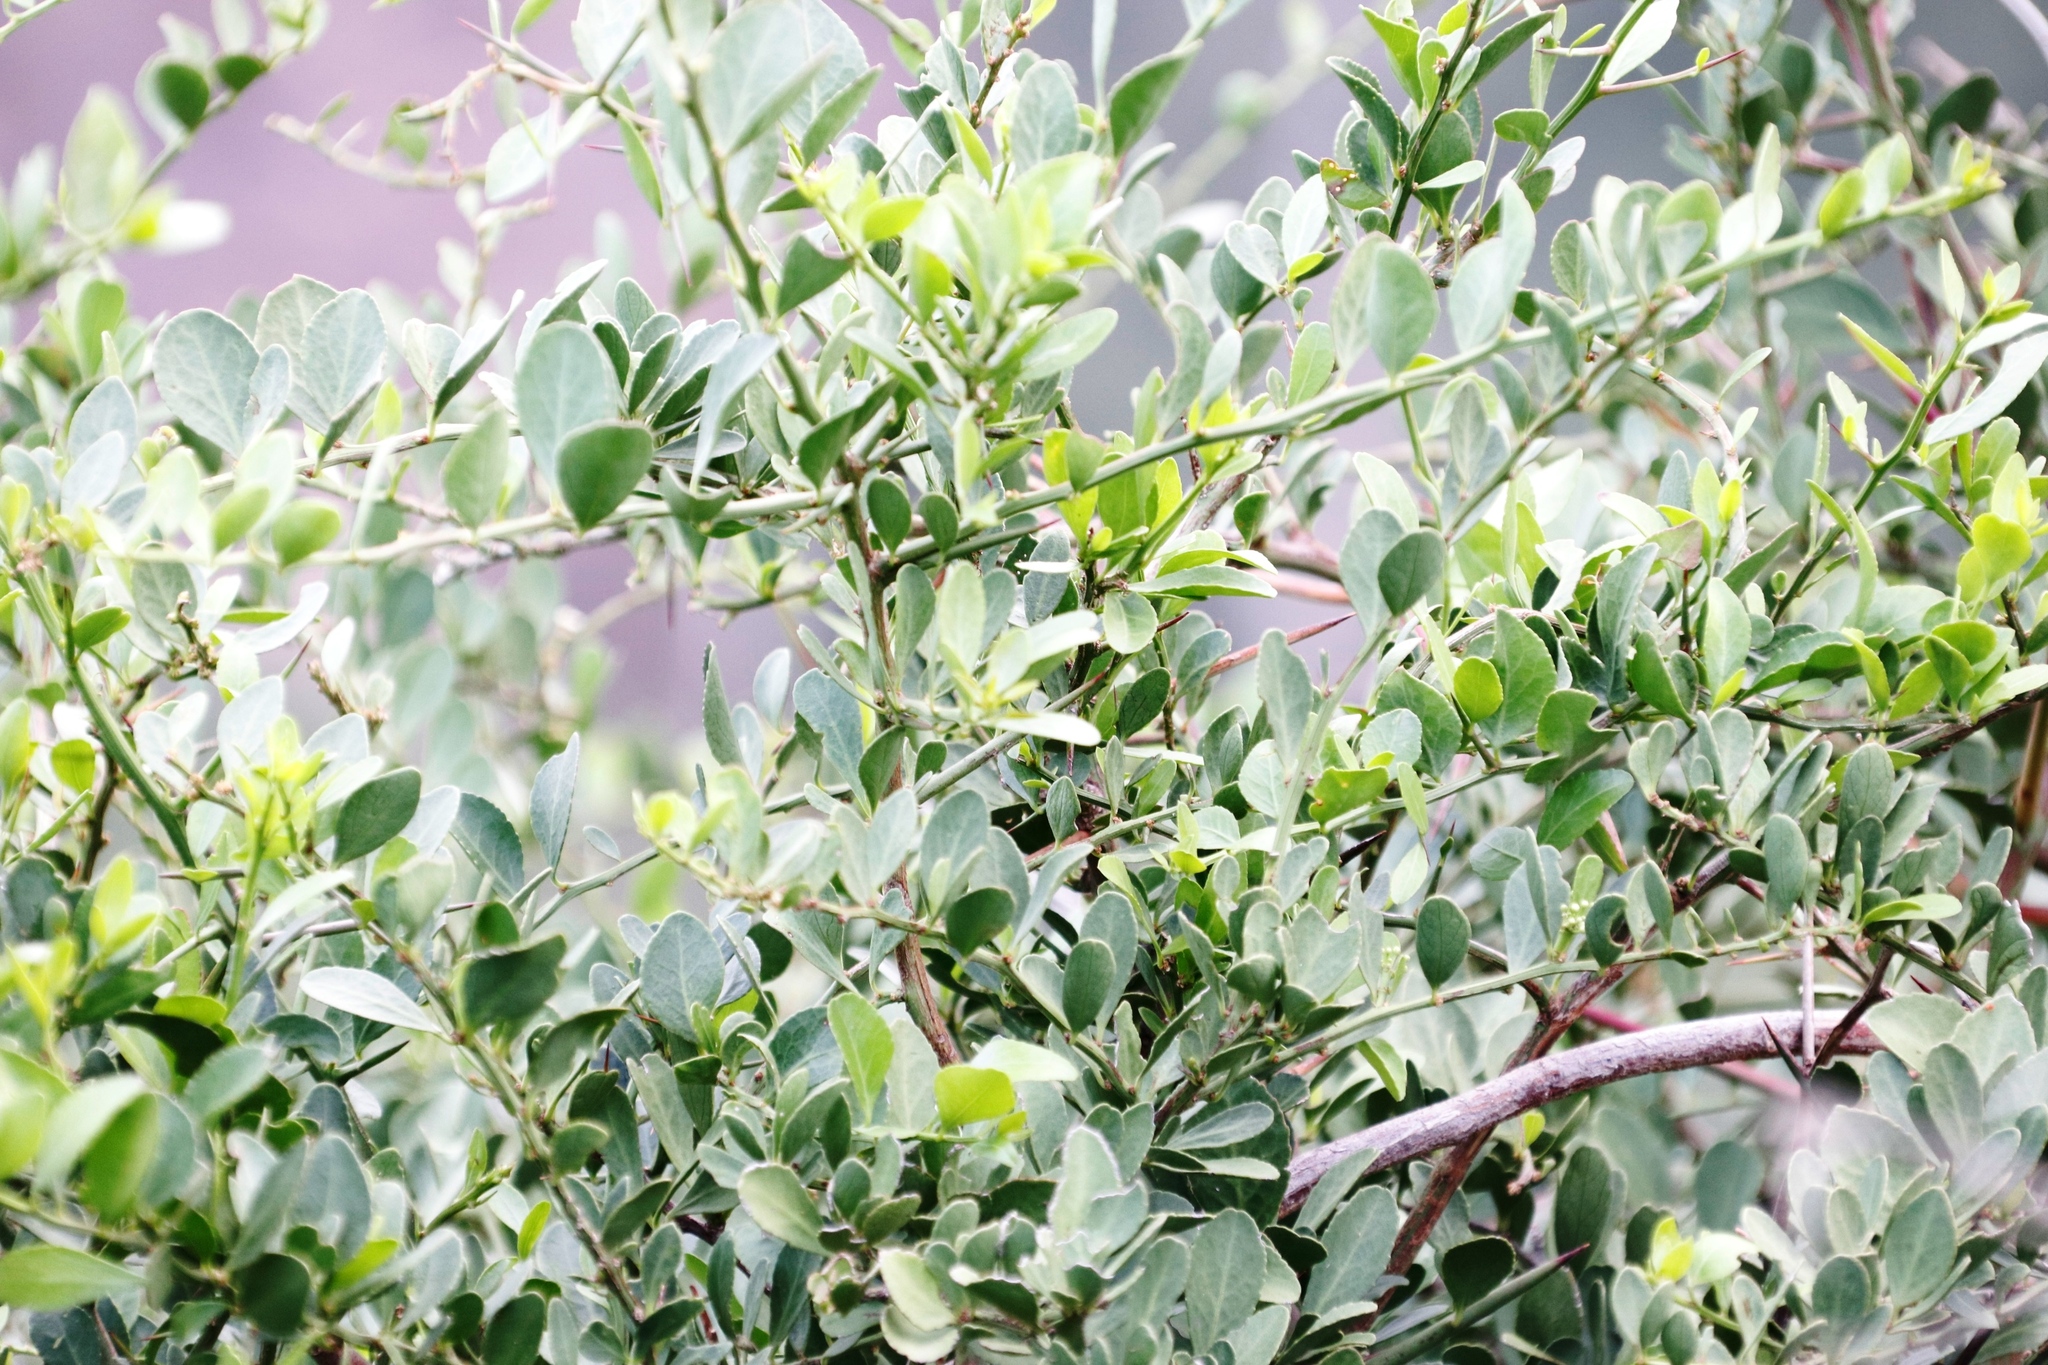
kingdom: Plantae
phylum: Tracheophyta
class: Magnoliopsida
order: Celastrales
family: Celastraceae
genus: Gymnosporia
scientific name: Gymnosporia buxifolia
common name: Common spike-thorn
